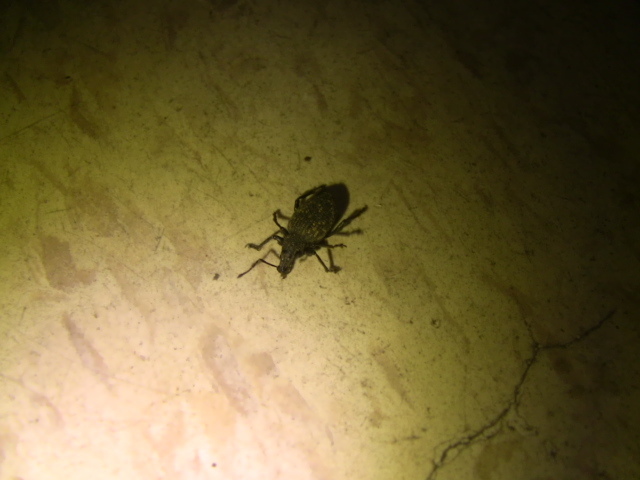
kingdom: Animalia
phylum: Arthropoda
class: Insecta
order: Coleoptera
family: Curculionidae
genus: Otiorhynchus
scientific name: Otiorhynchus sulcatus
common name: Black vine weevil
